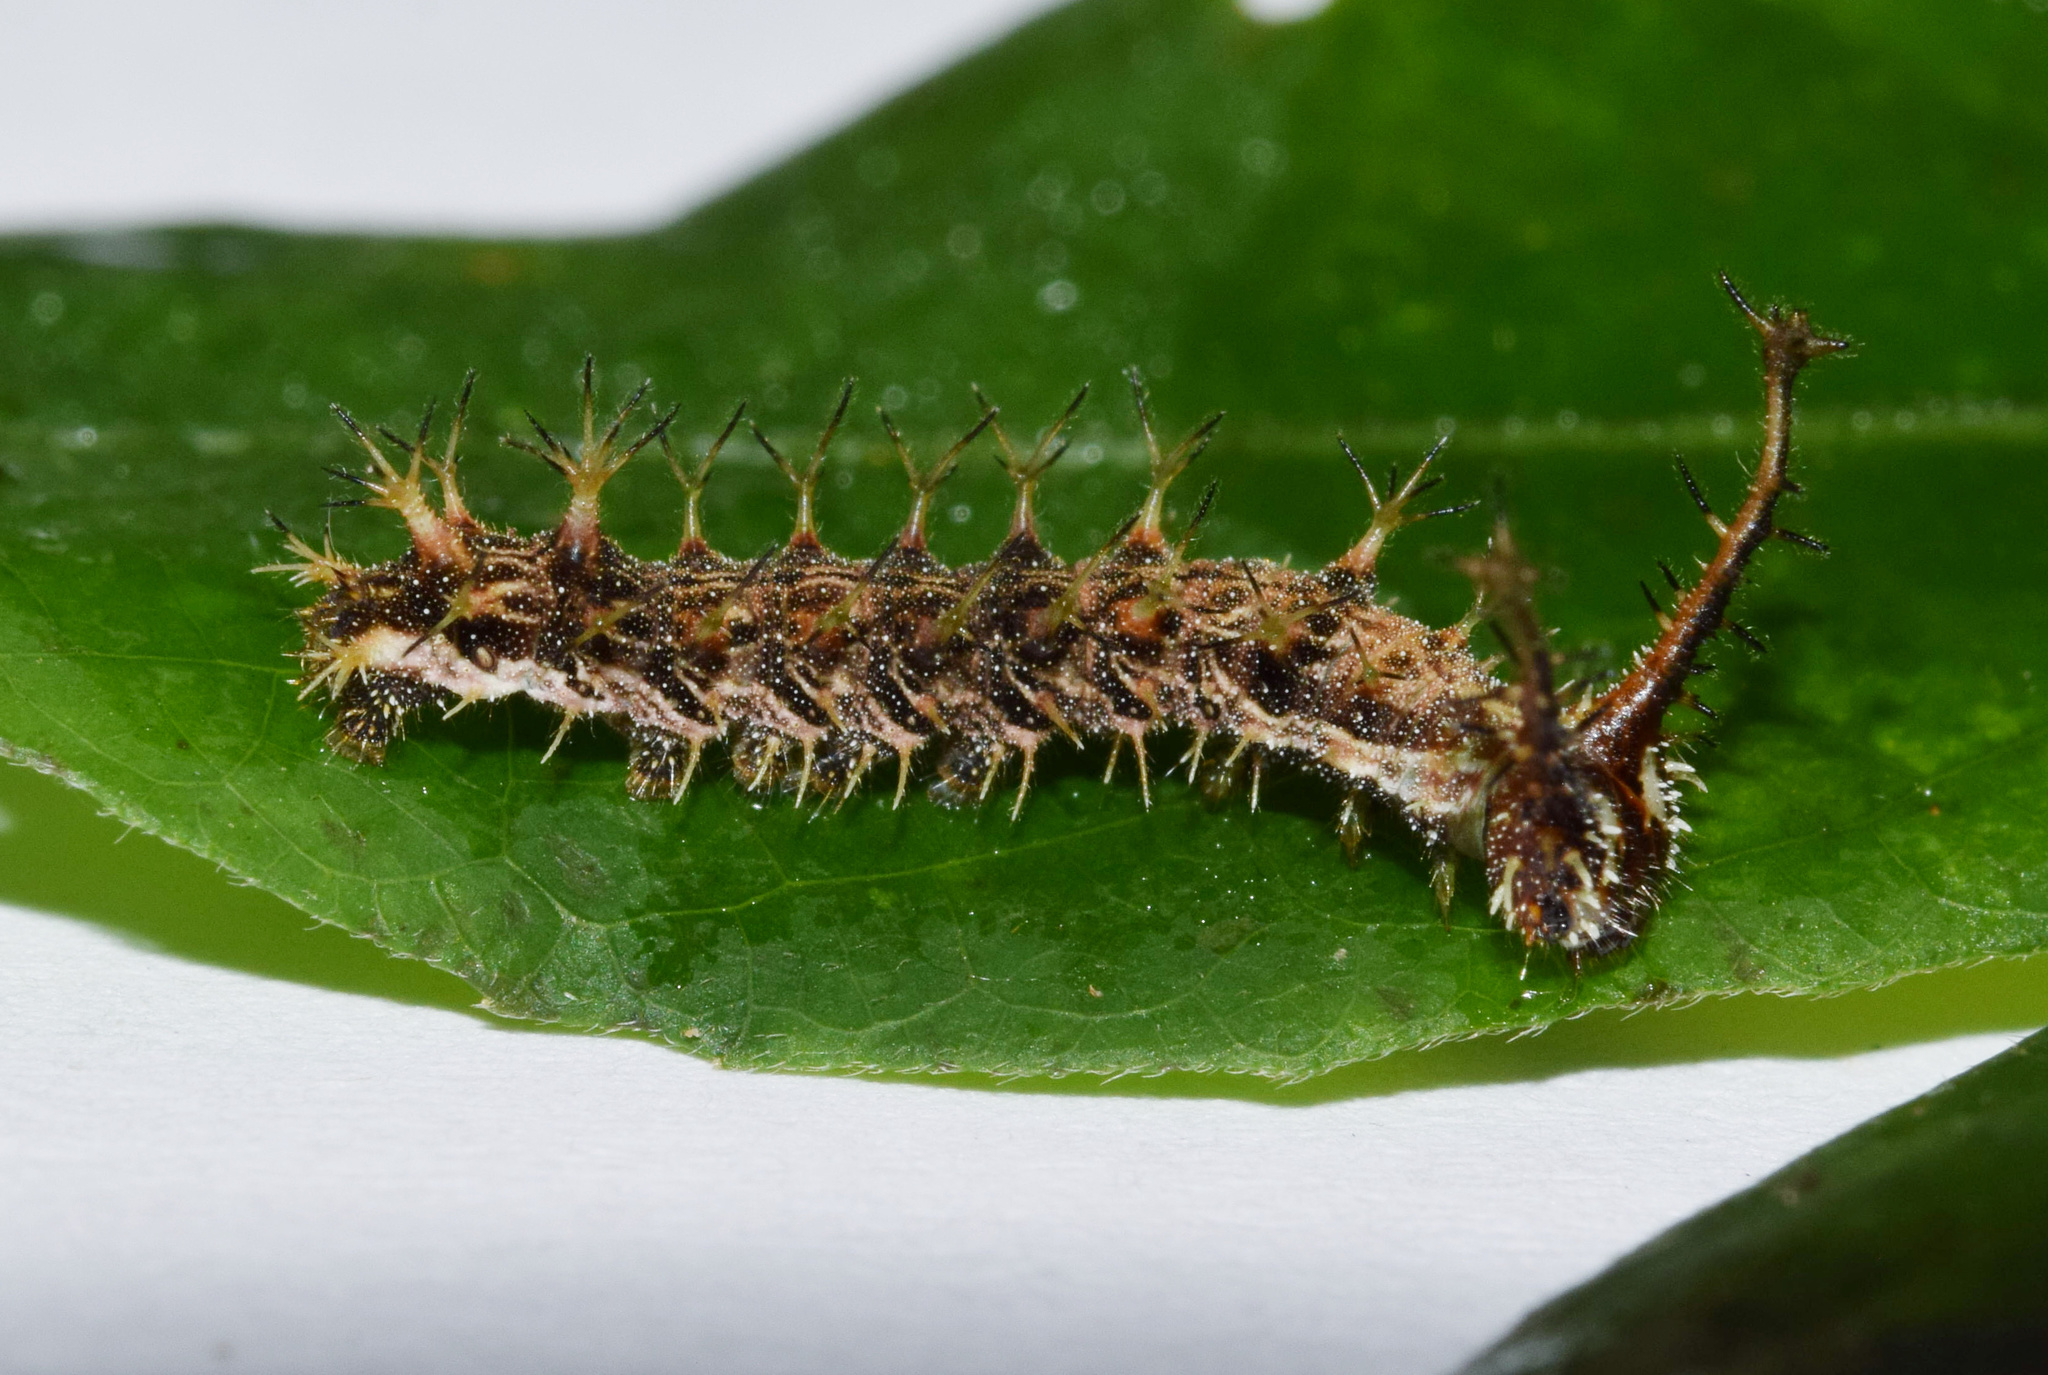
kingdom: Animalia
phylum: Arthropoda
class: Insecta
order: Lepidoptera
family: Nymphalidae
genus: Eurytela
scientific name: Eurytela dryope
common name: Golden piper
